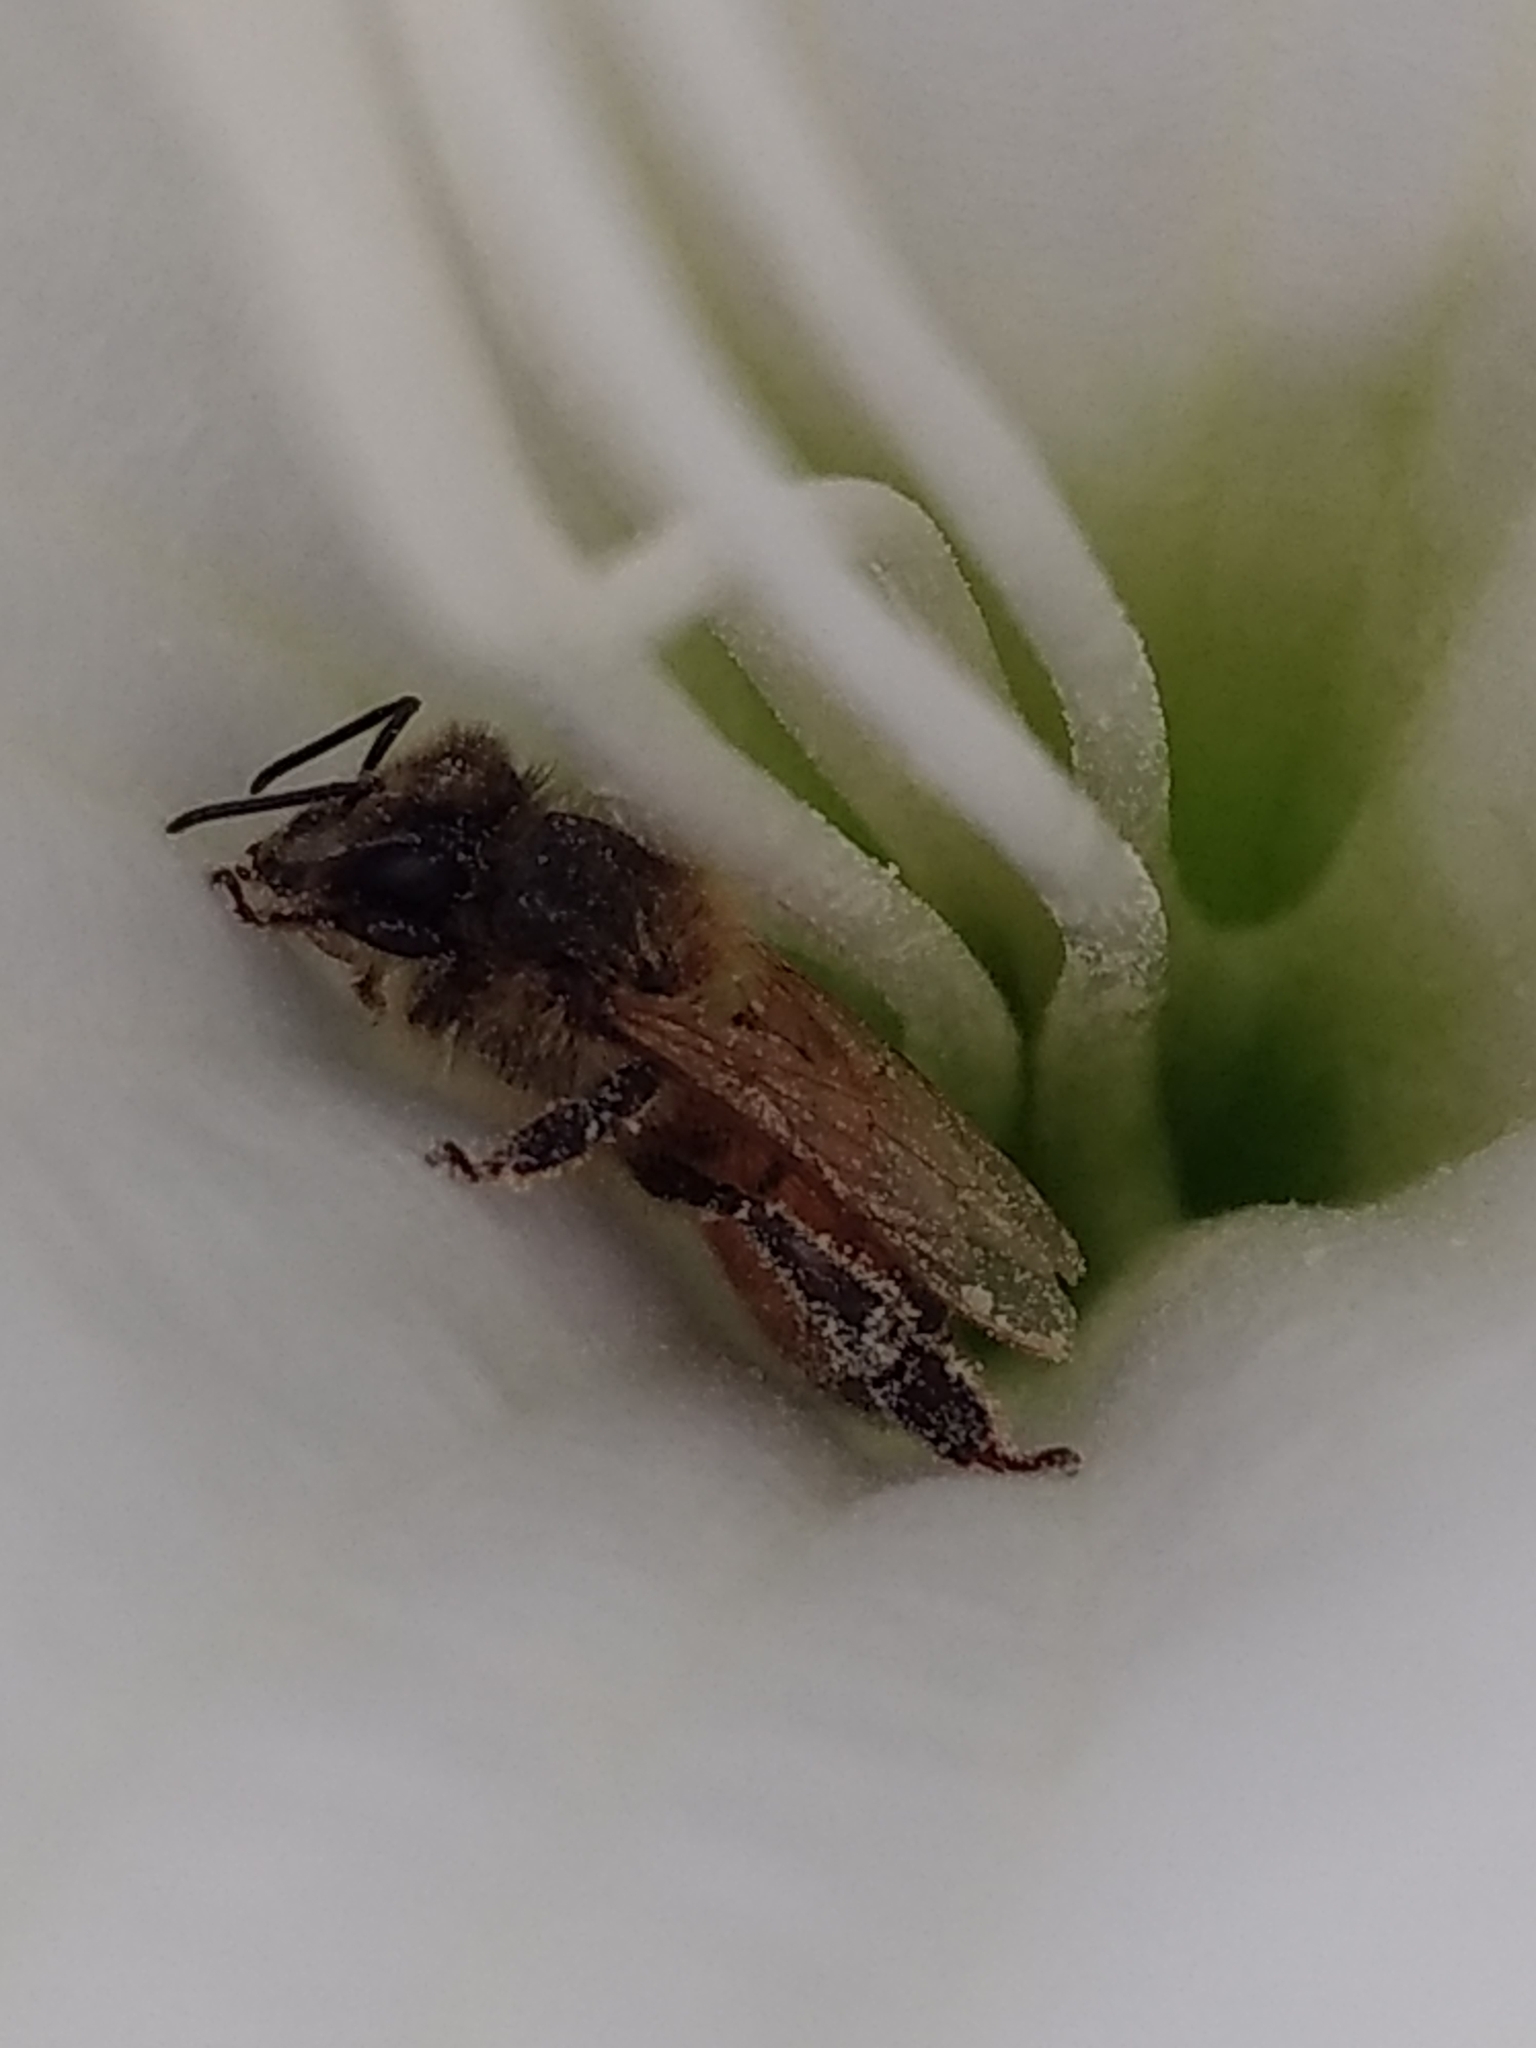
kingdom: Animalia
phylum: Arthropoda
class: Insecta
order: Hymenoptera
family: Apidae
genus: Apis
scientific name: Apis mellifera
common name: Honey bee
